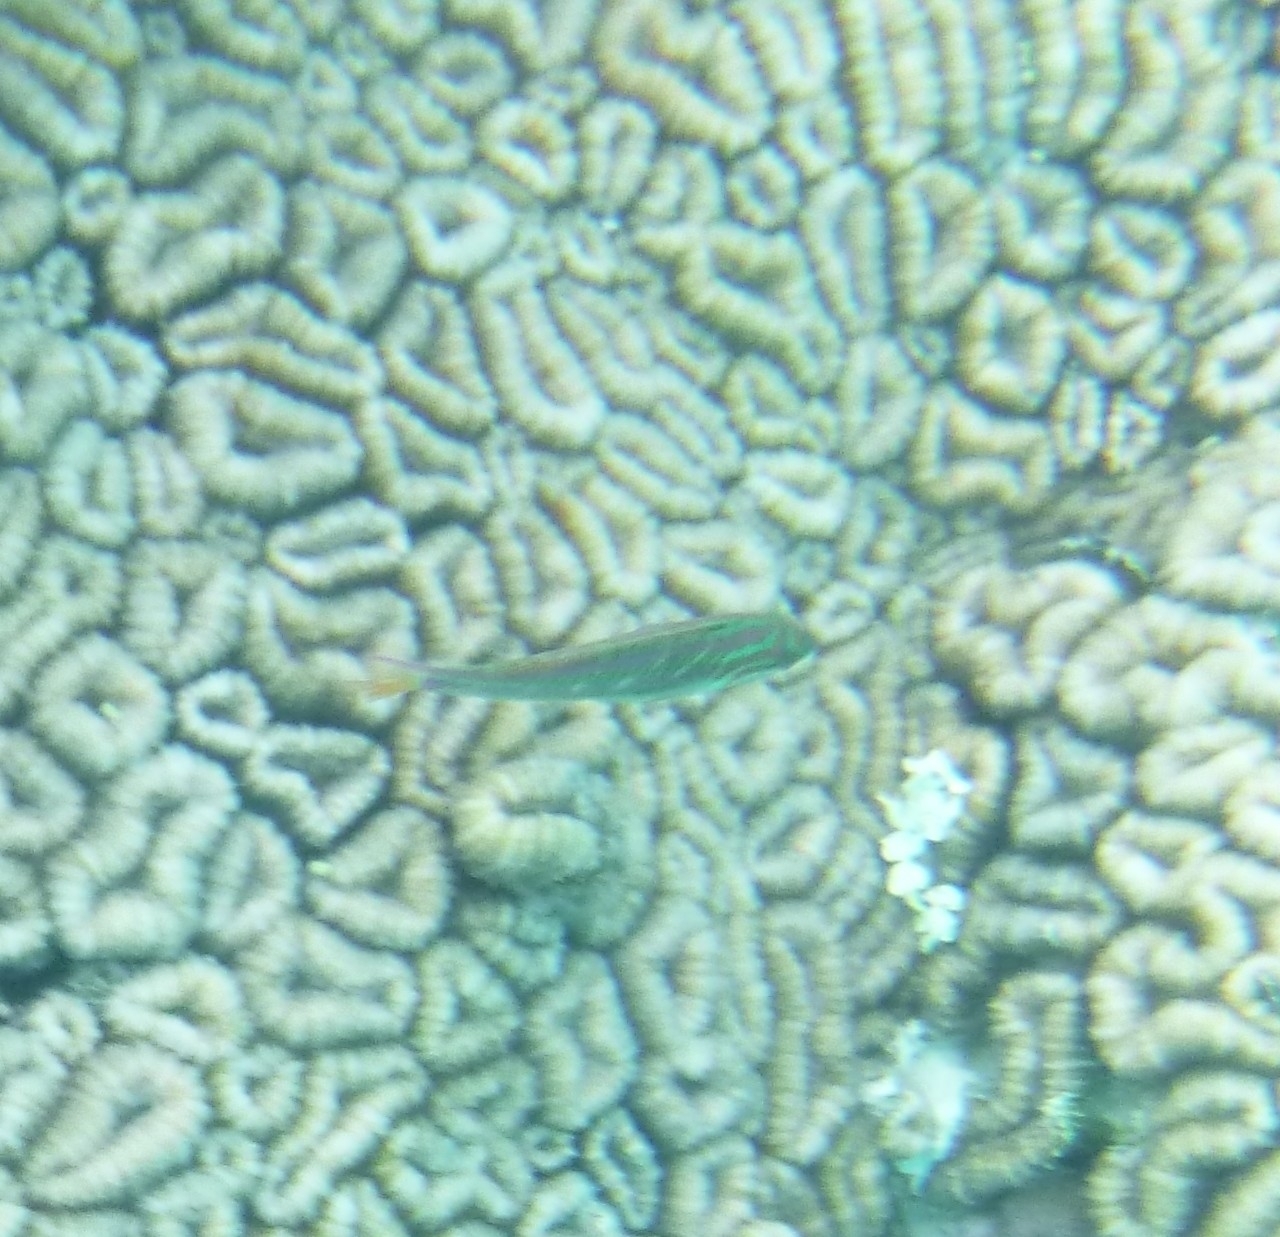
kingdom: Animalia
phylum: Chordata
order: Perciformes
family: Labridae
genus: Thalassoma
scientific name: Thalassoma quinquevittatum
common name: Five striped surge wrasse
